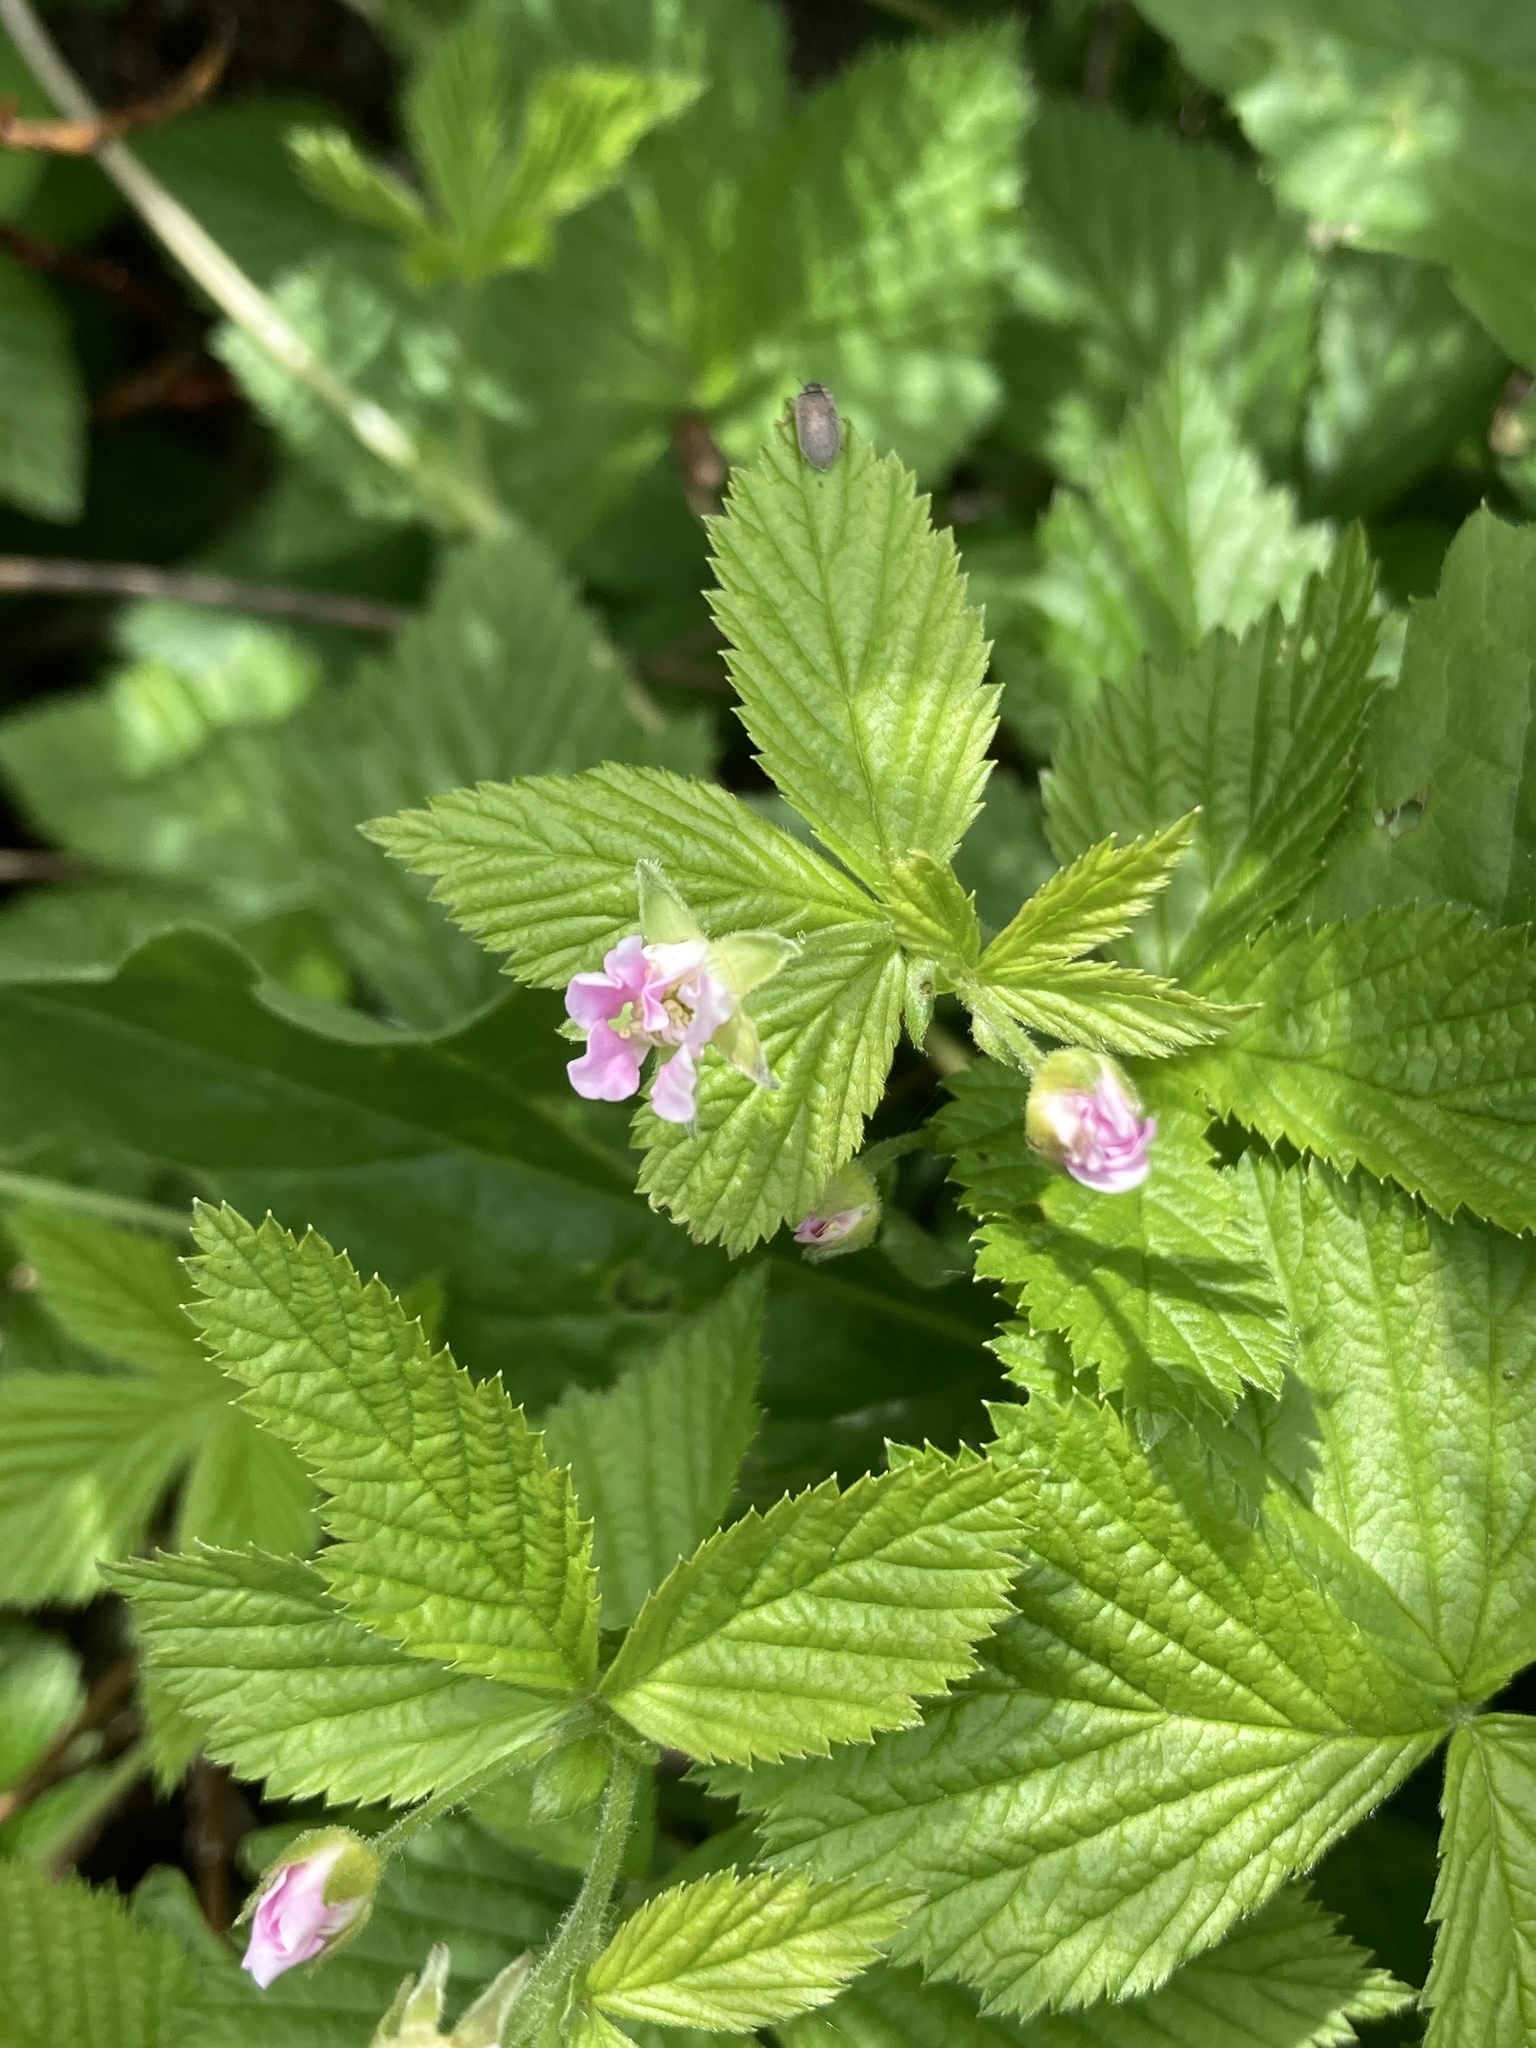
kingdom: Plantae
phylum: Tracheophyta
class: Magnoliopsida
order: Rosales
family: Rosaceae
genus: Rubus
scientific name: Rubus pubescens
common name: Dwarf raspberry
